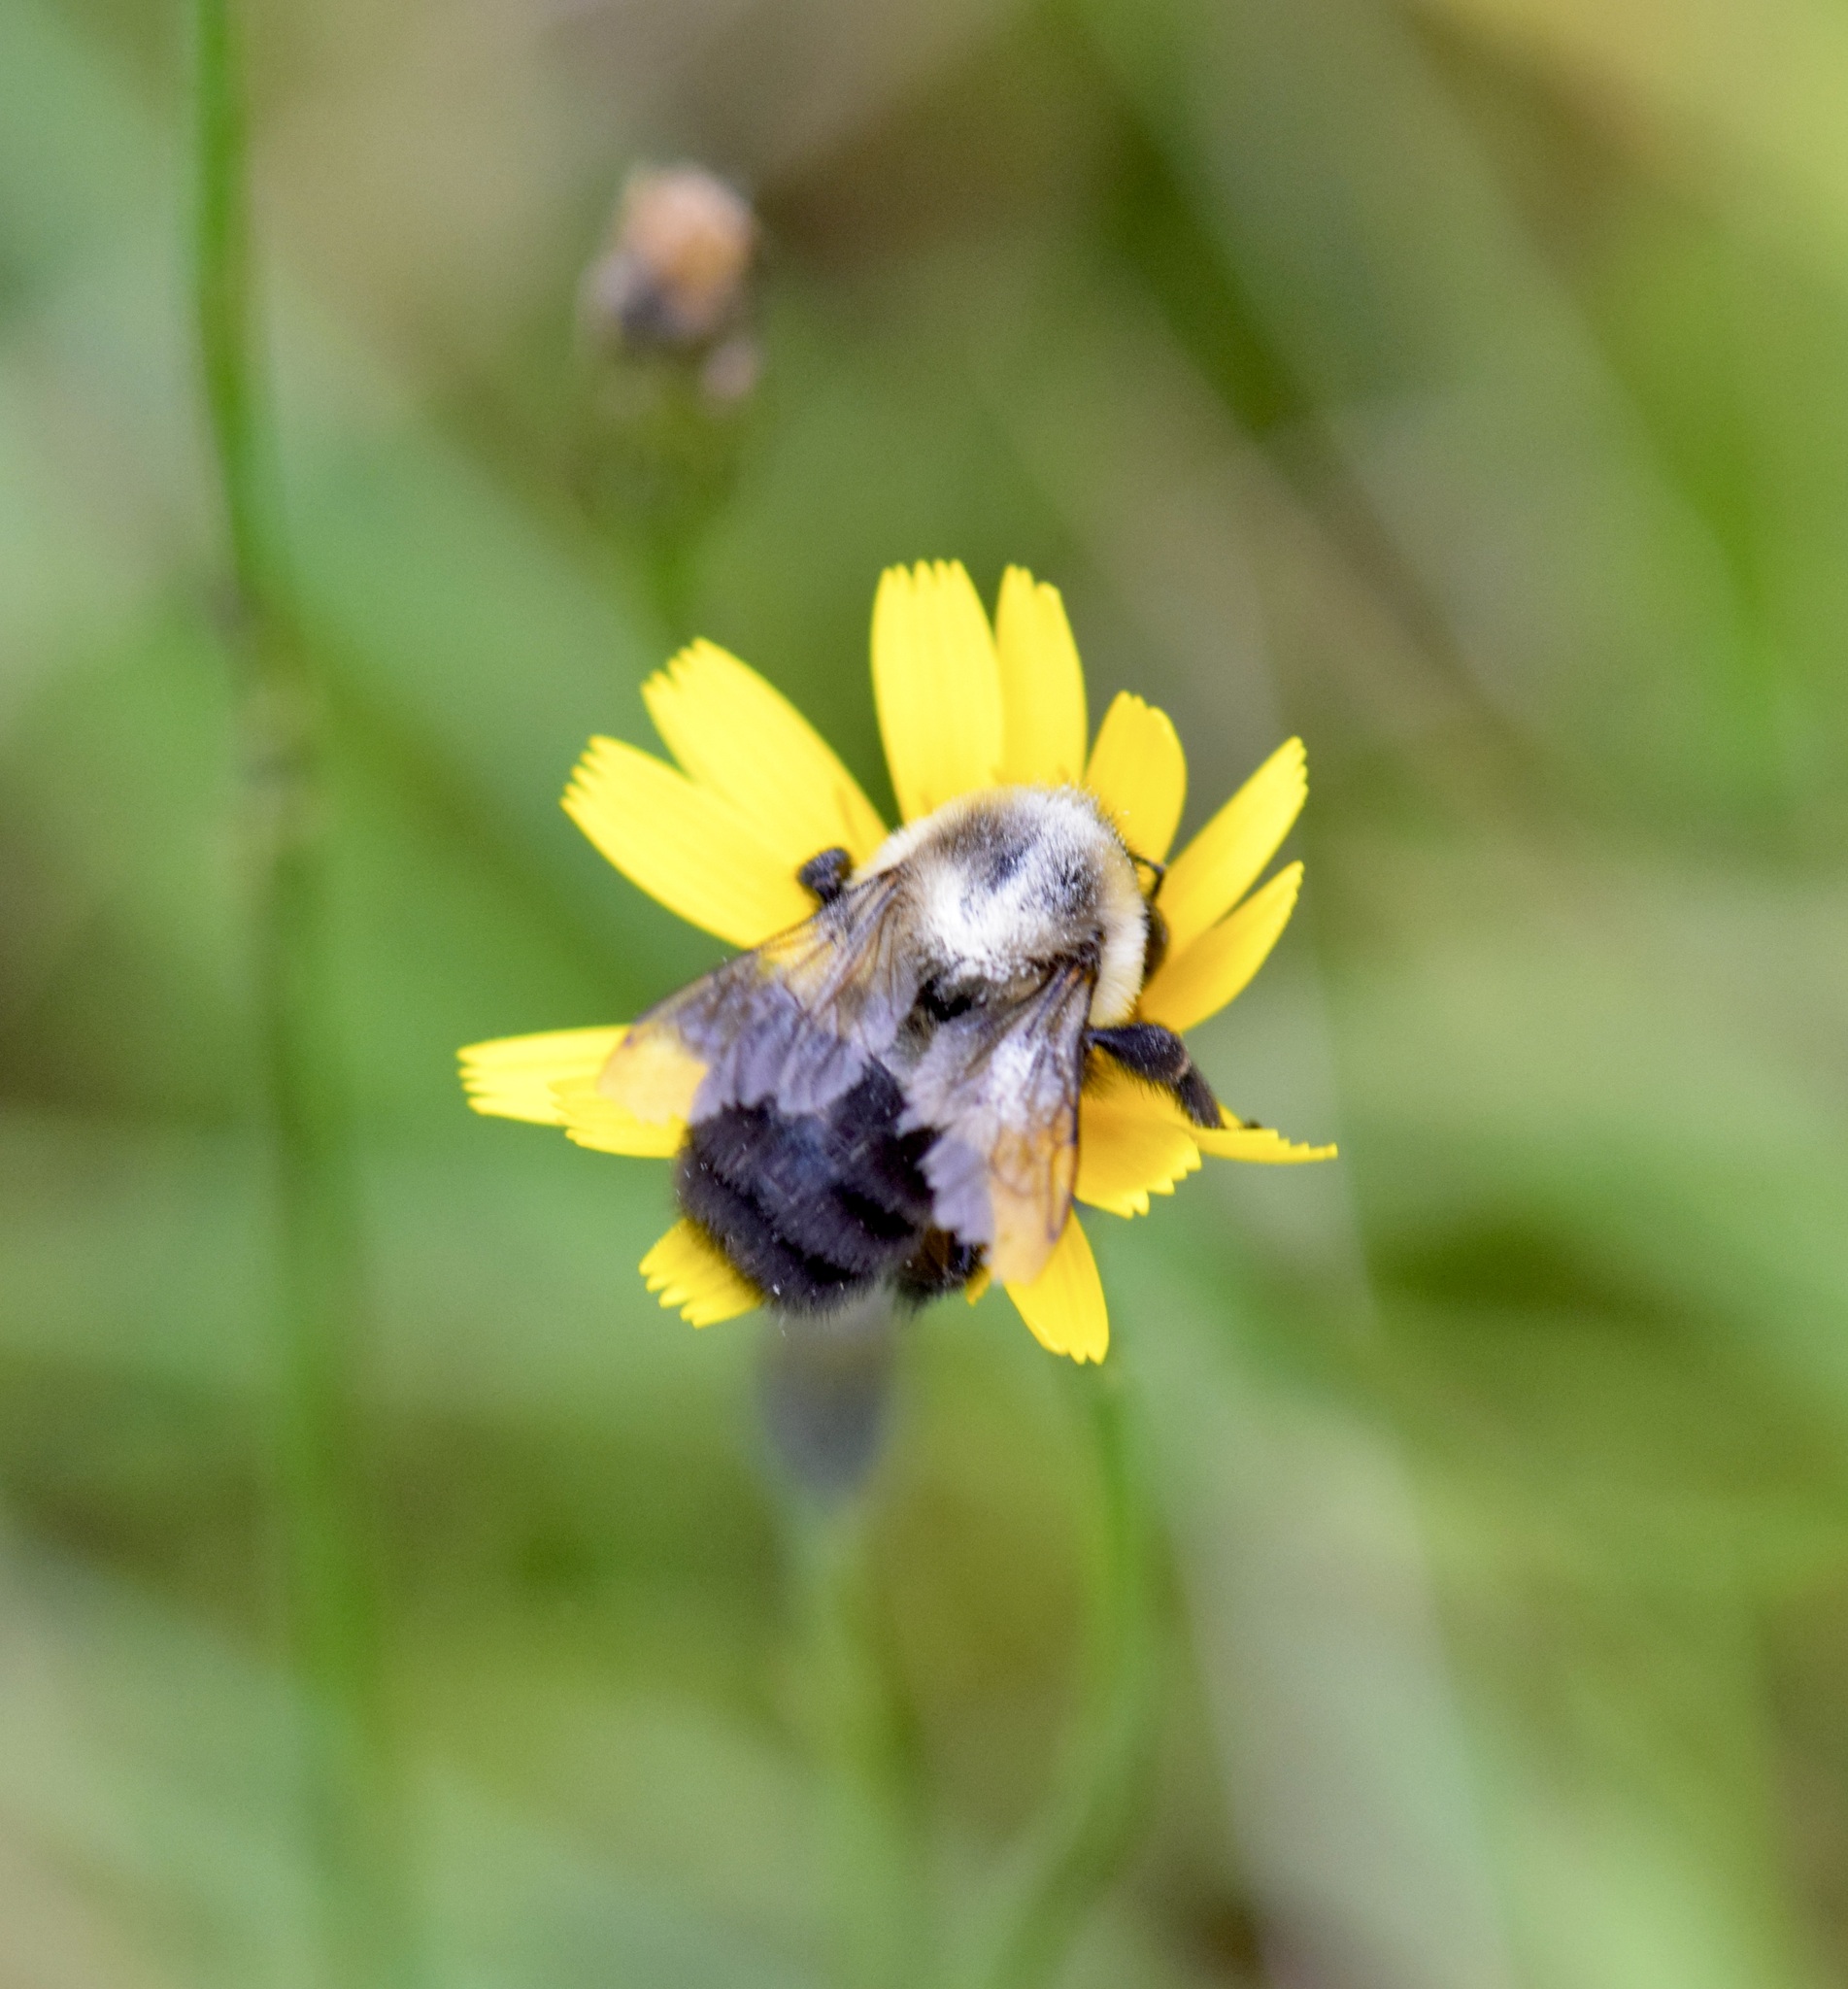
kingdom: Animalia
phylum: Arthropoda
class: Insecta
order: Hymenoptera
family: Apidae
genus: Bombus
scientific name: Bombus impatiens
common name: Common eastern bumble bee
